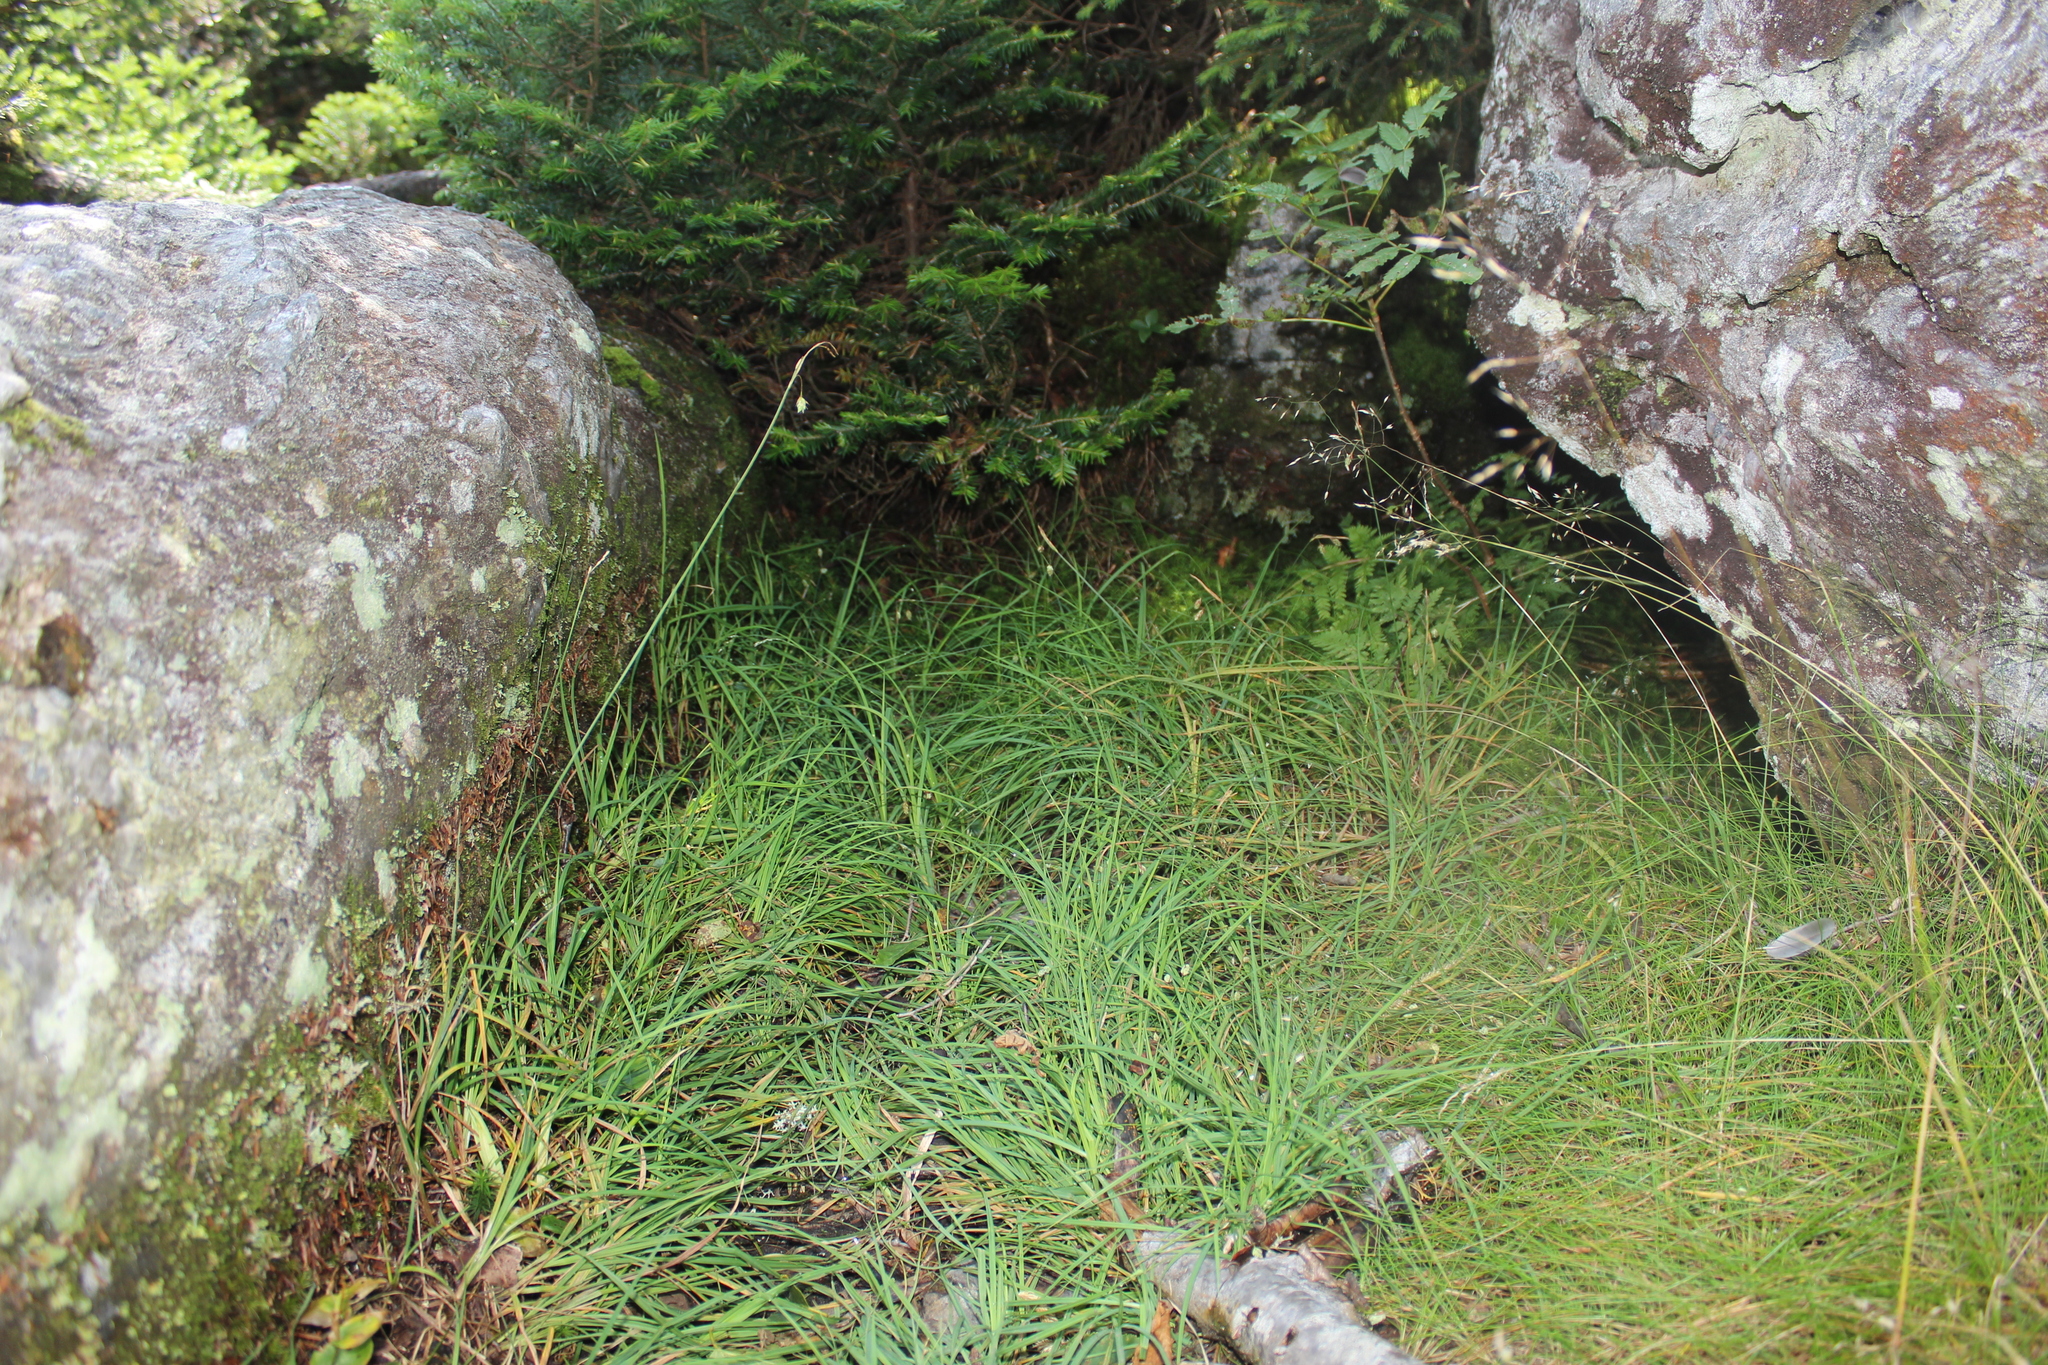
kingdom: Plantae
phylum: Tracheophyta
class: Liliopsida
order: Poales
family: Cyperaceae
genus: Carex
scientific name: Carex magellanica
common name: Bog sedge
